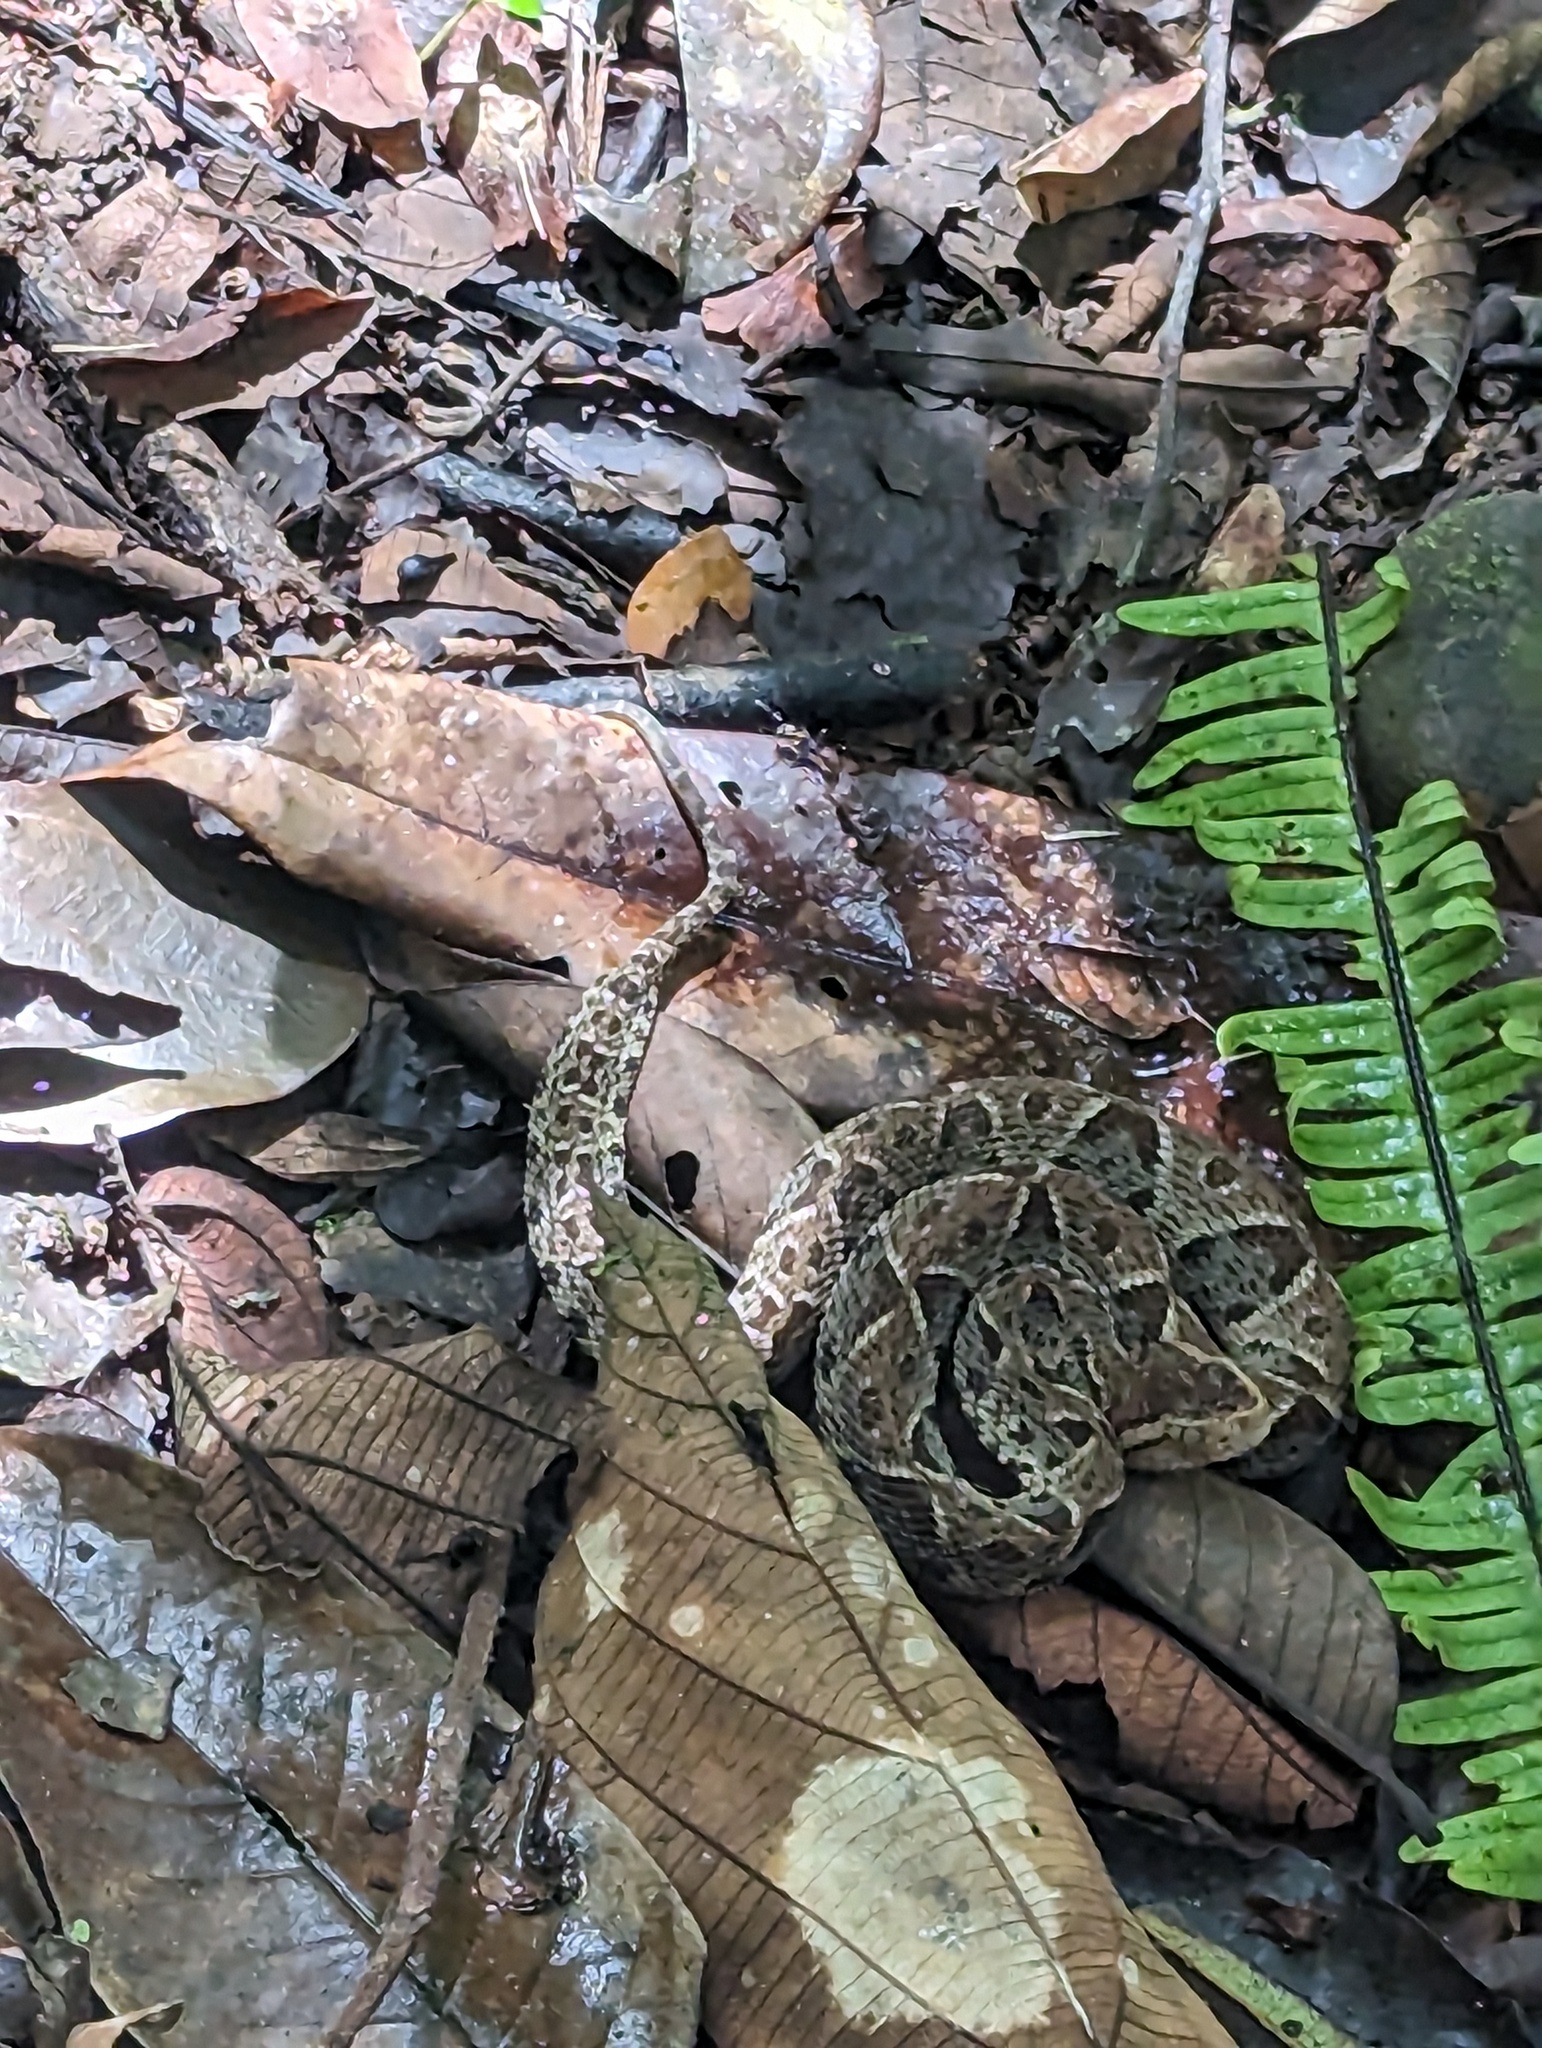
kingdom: Animalia
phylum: Chordata
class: Squamata
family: Viperidae
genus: Bothrops
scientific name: Bothrops asper
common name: Terciopelo
